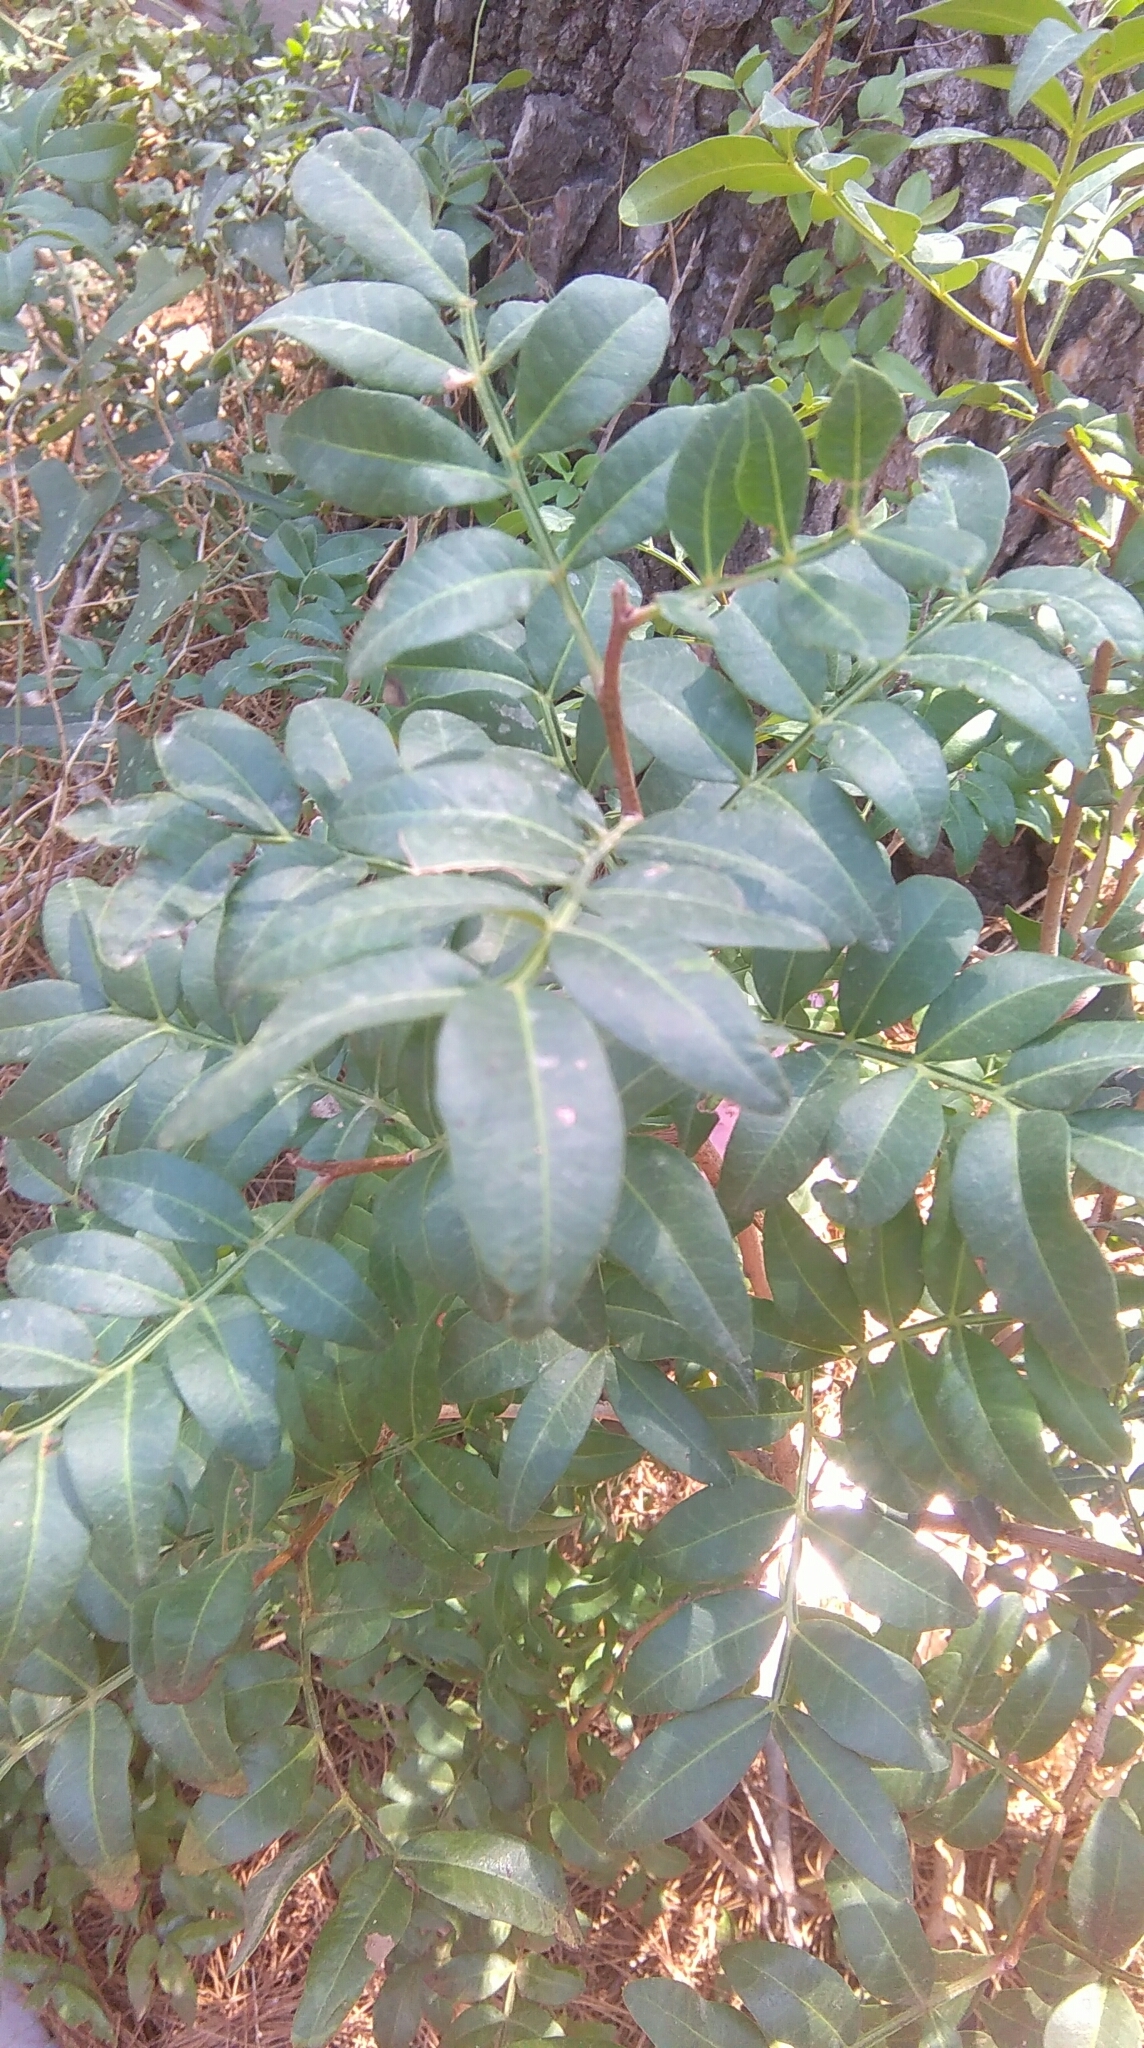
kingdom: Plantae
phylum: Tracheophyta
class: Magnoliopsida
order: Sapindales
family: Anacardiaceae
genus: Pistacia
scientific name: Pistacia lentiscus
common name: Lentisk
